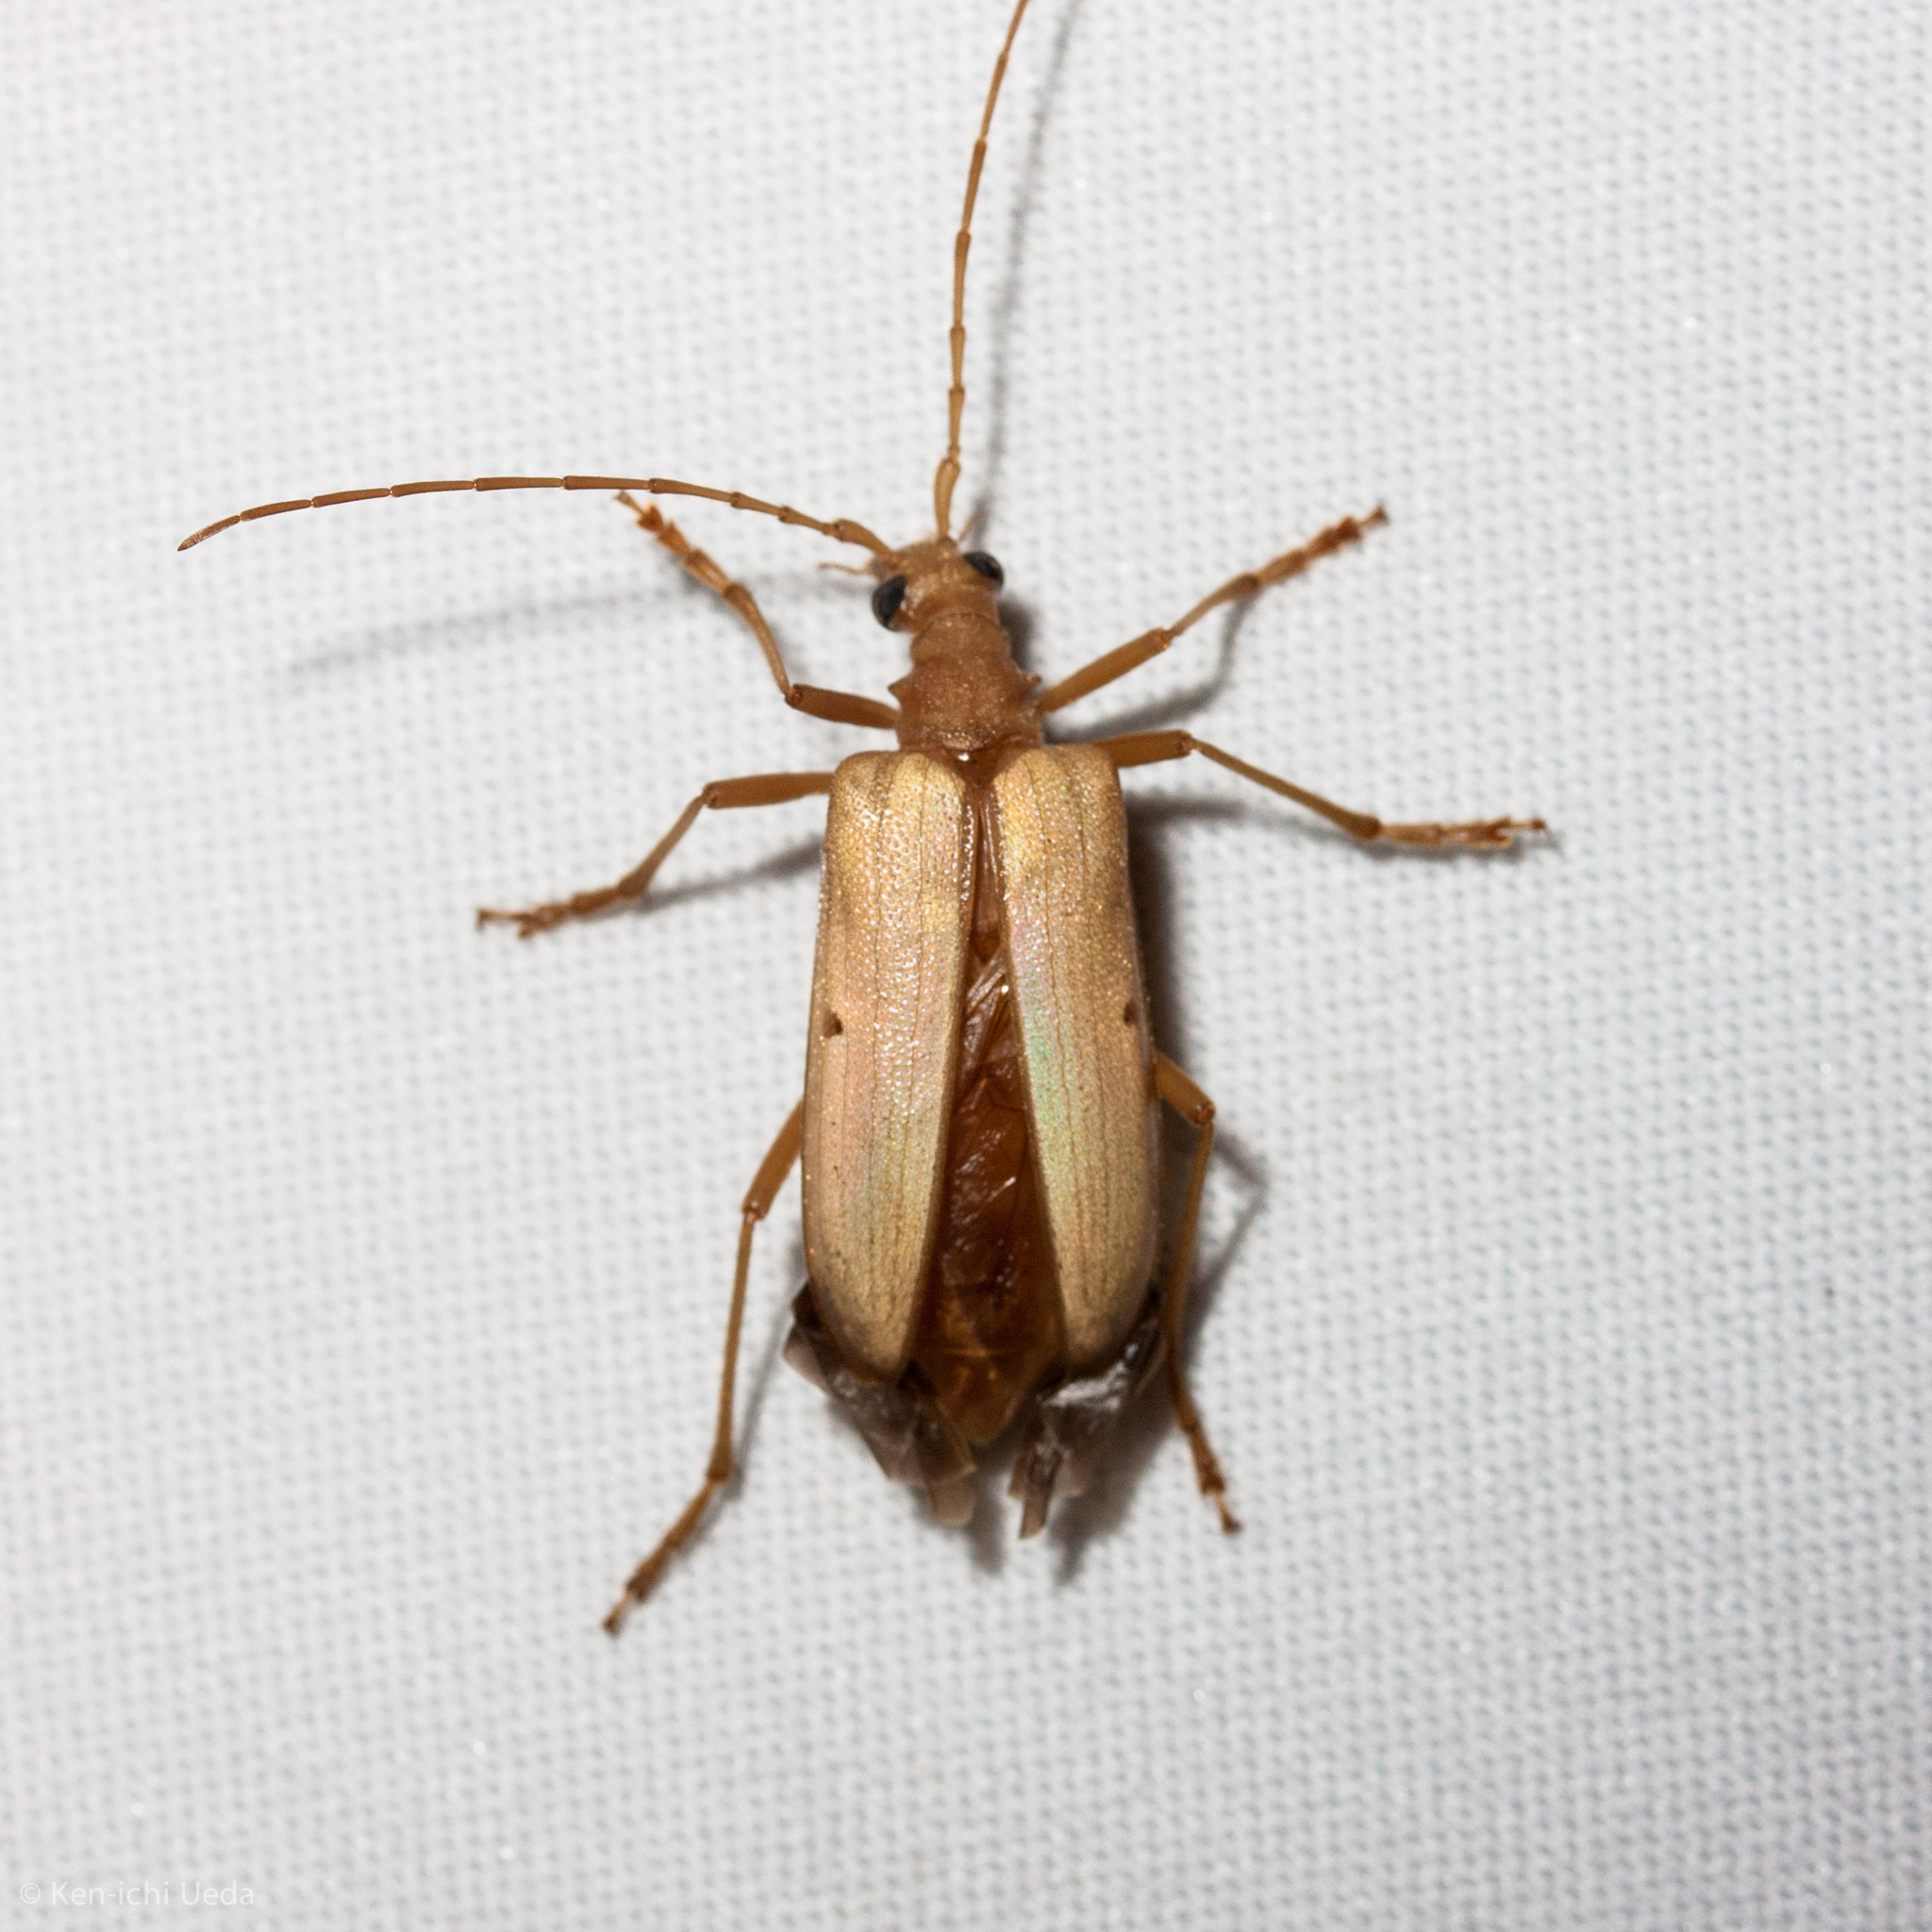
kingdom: Animalia
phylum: Arthropoda
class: Insecta
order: Coleoptera
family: Cerambycidae
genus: Centrodera
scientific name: Centrodera spurca
